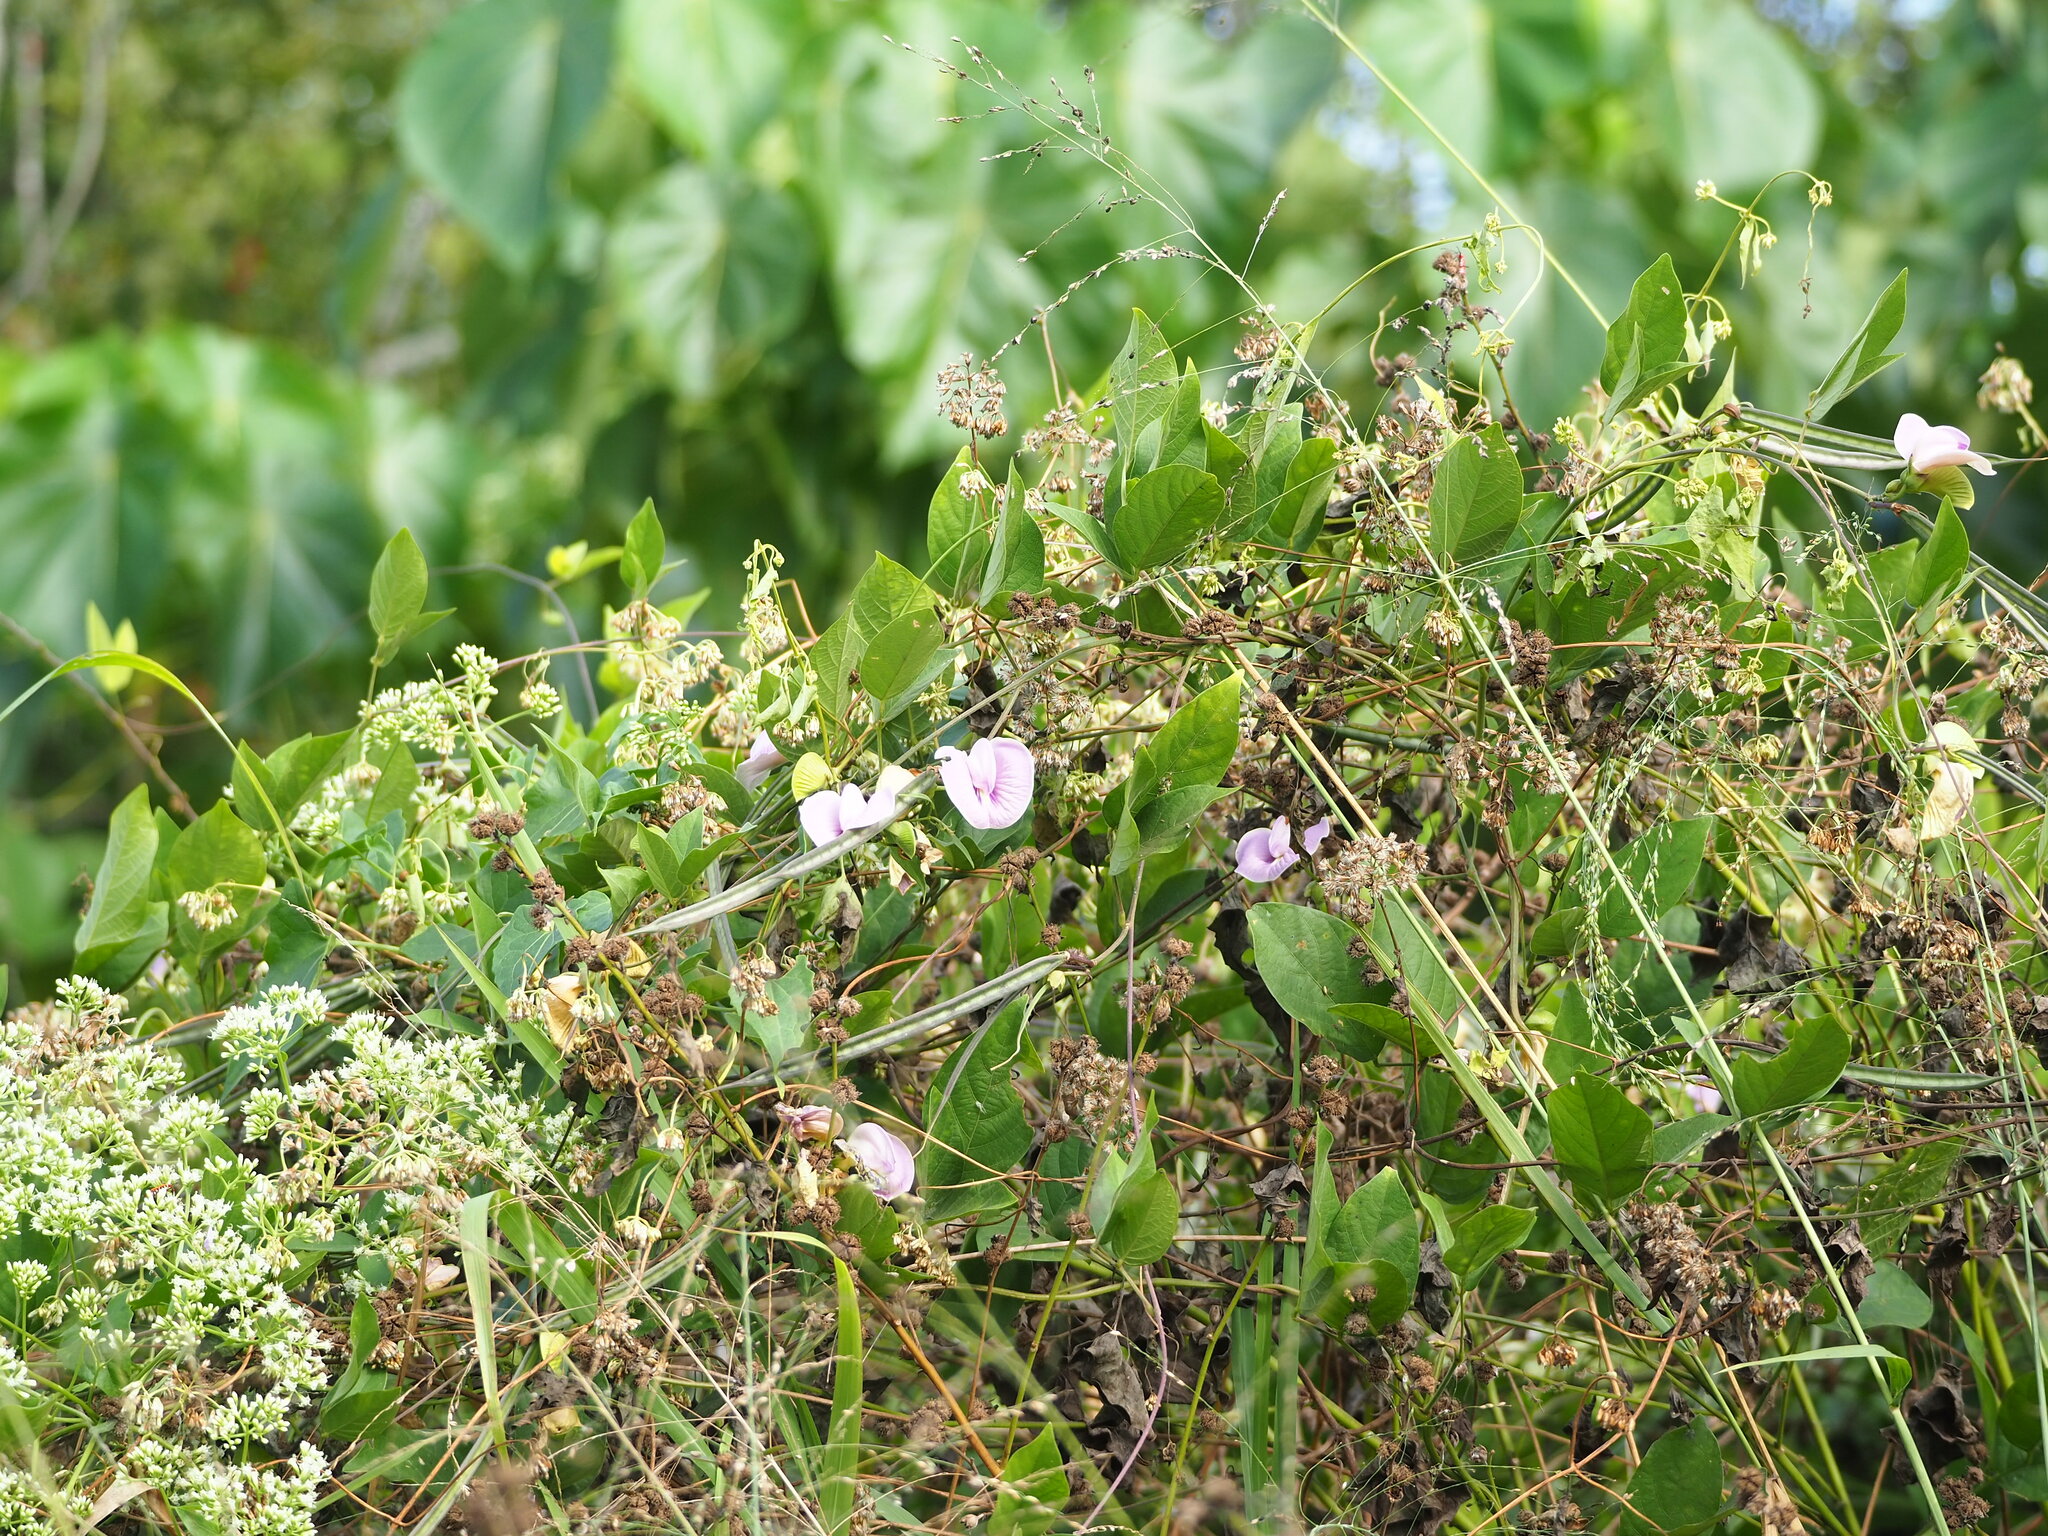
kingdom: Plantae
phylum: Tracheophyta
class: Magnoliopsida
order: Fabales
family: Fabaceae
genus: Centrosema
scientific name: Centrosema pubescens
